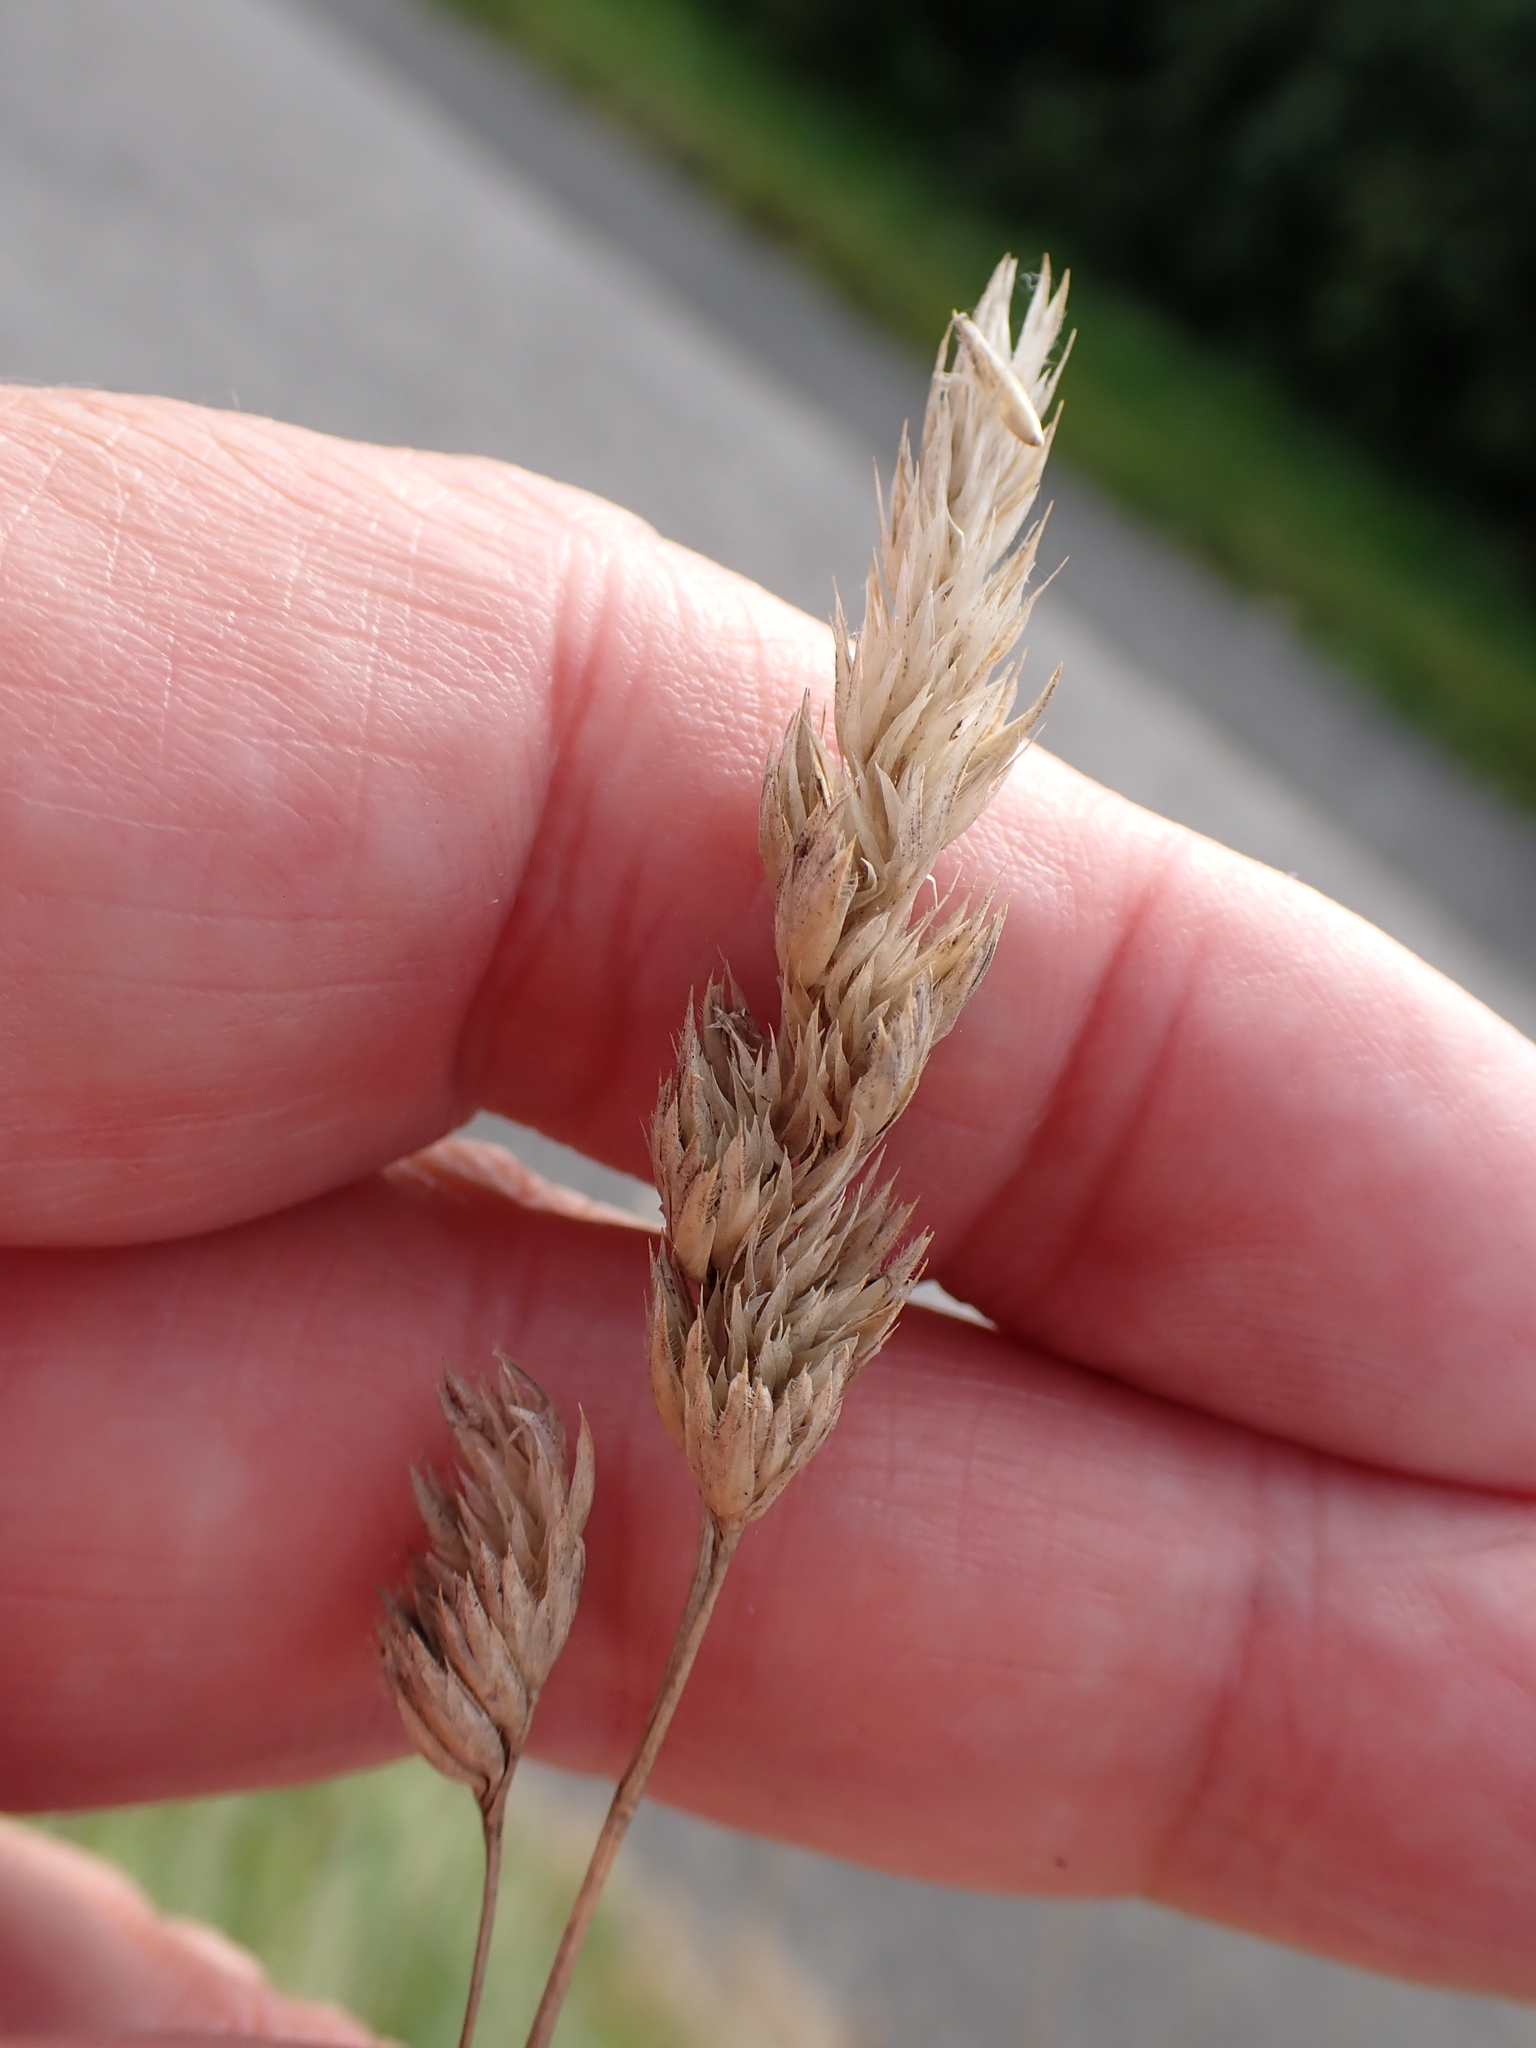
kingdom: Plantae
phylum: Tracheophyta
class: Liliopsida
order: Poales
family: Poaceae
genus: Dactylis
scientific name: Dactylis glomerata
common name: Orchardgrass
